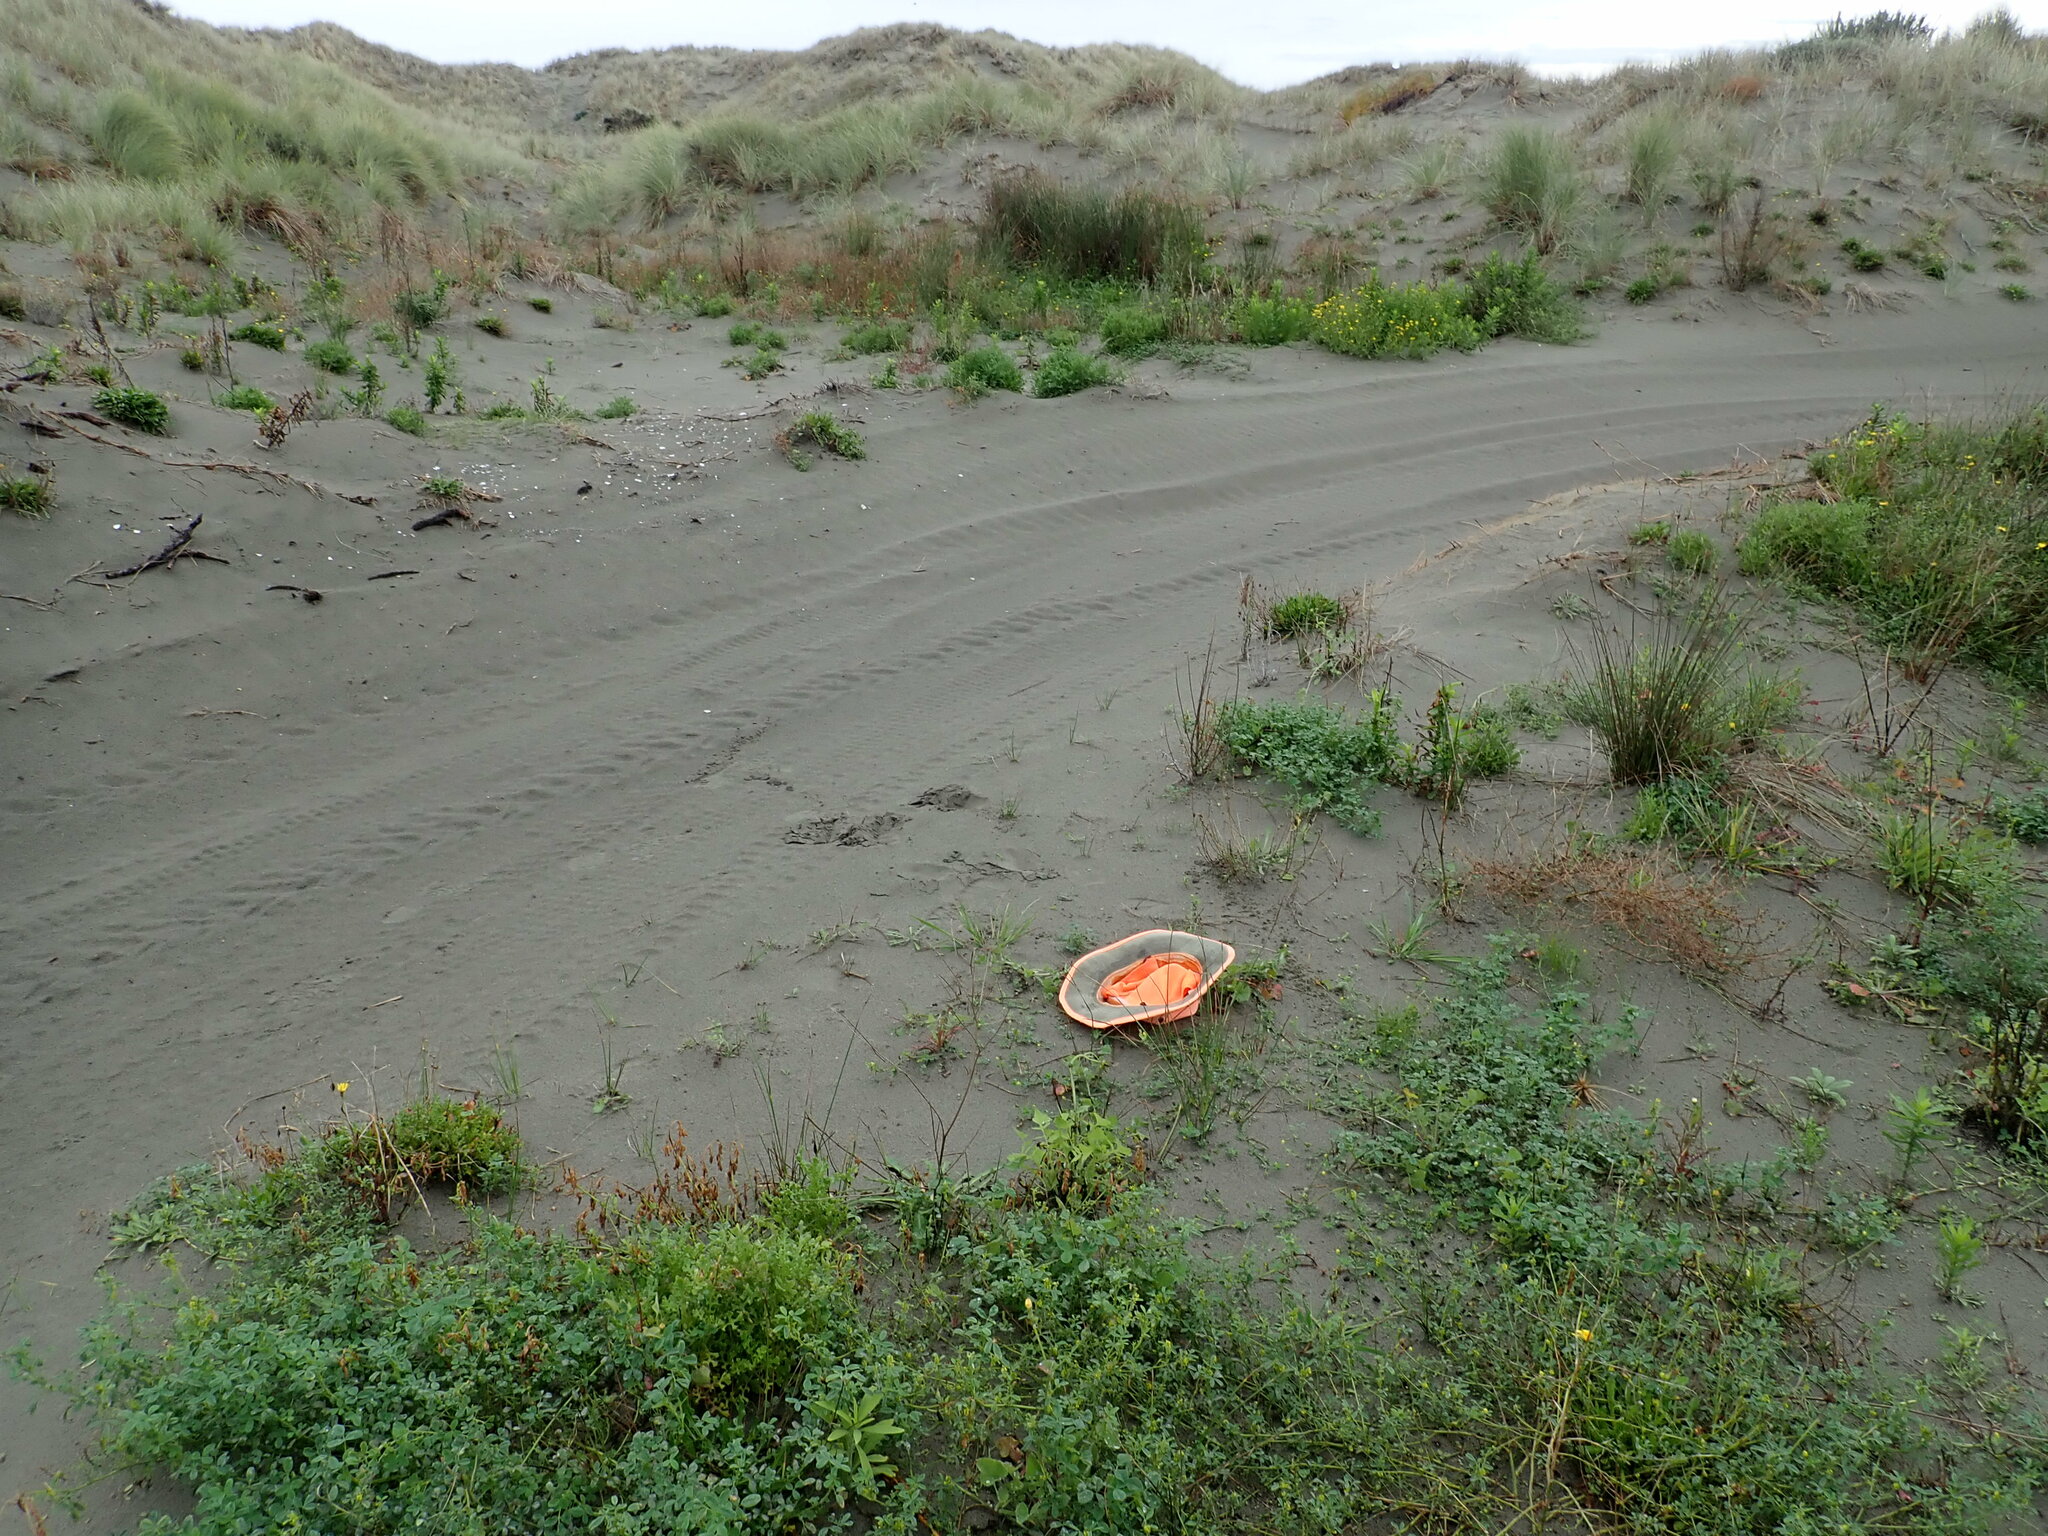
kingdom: Plantae
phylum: Tracheophyta
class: Magnoliopsida
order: Fabales
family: Fabaceae
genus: Medicago
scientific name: Medicago lupulina
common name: Black medick
